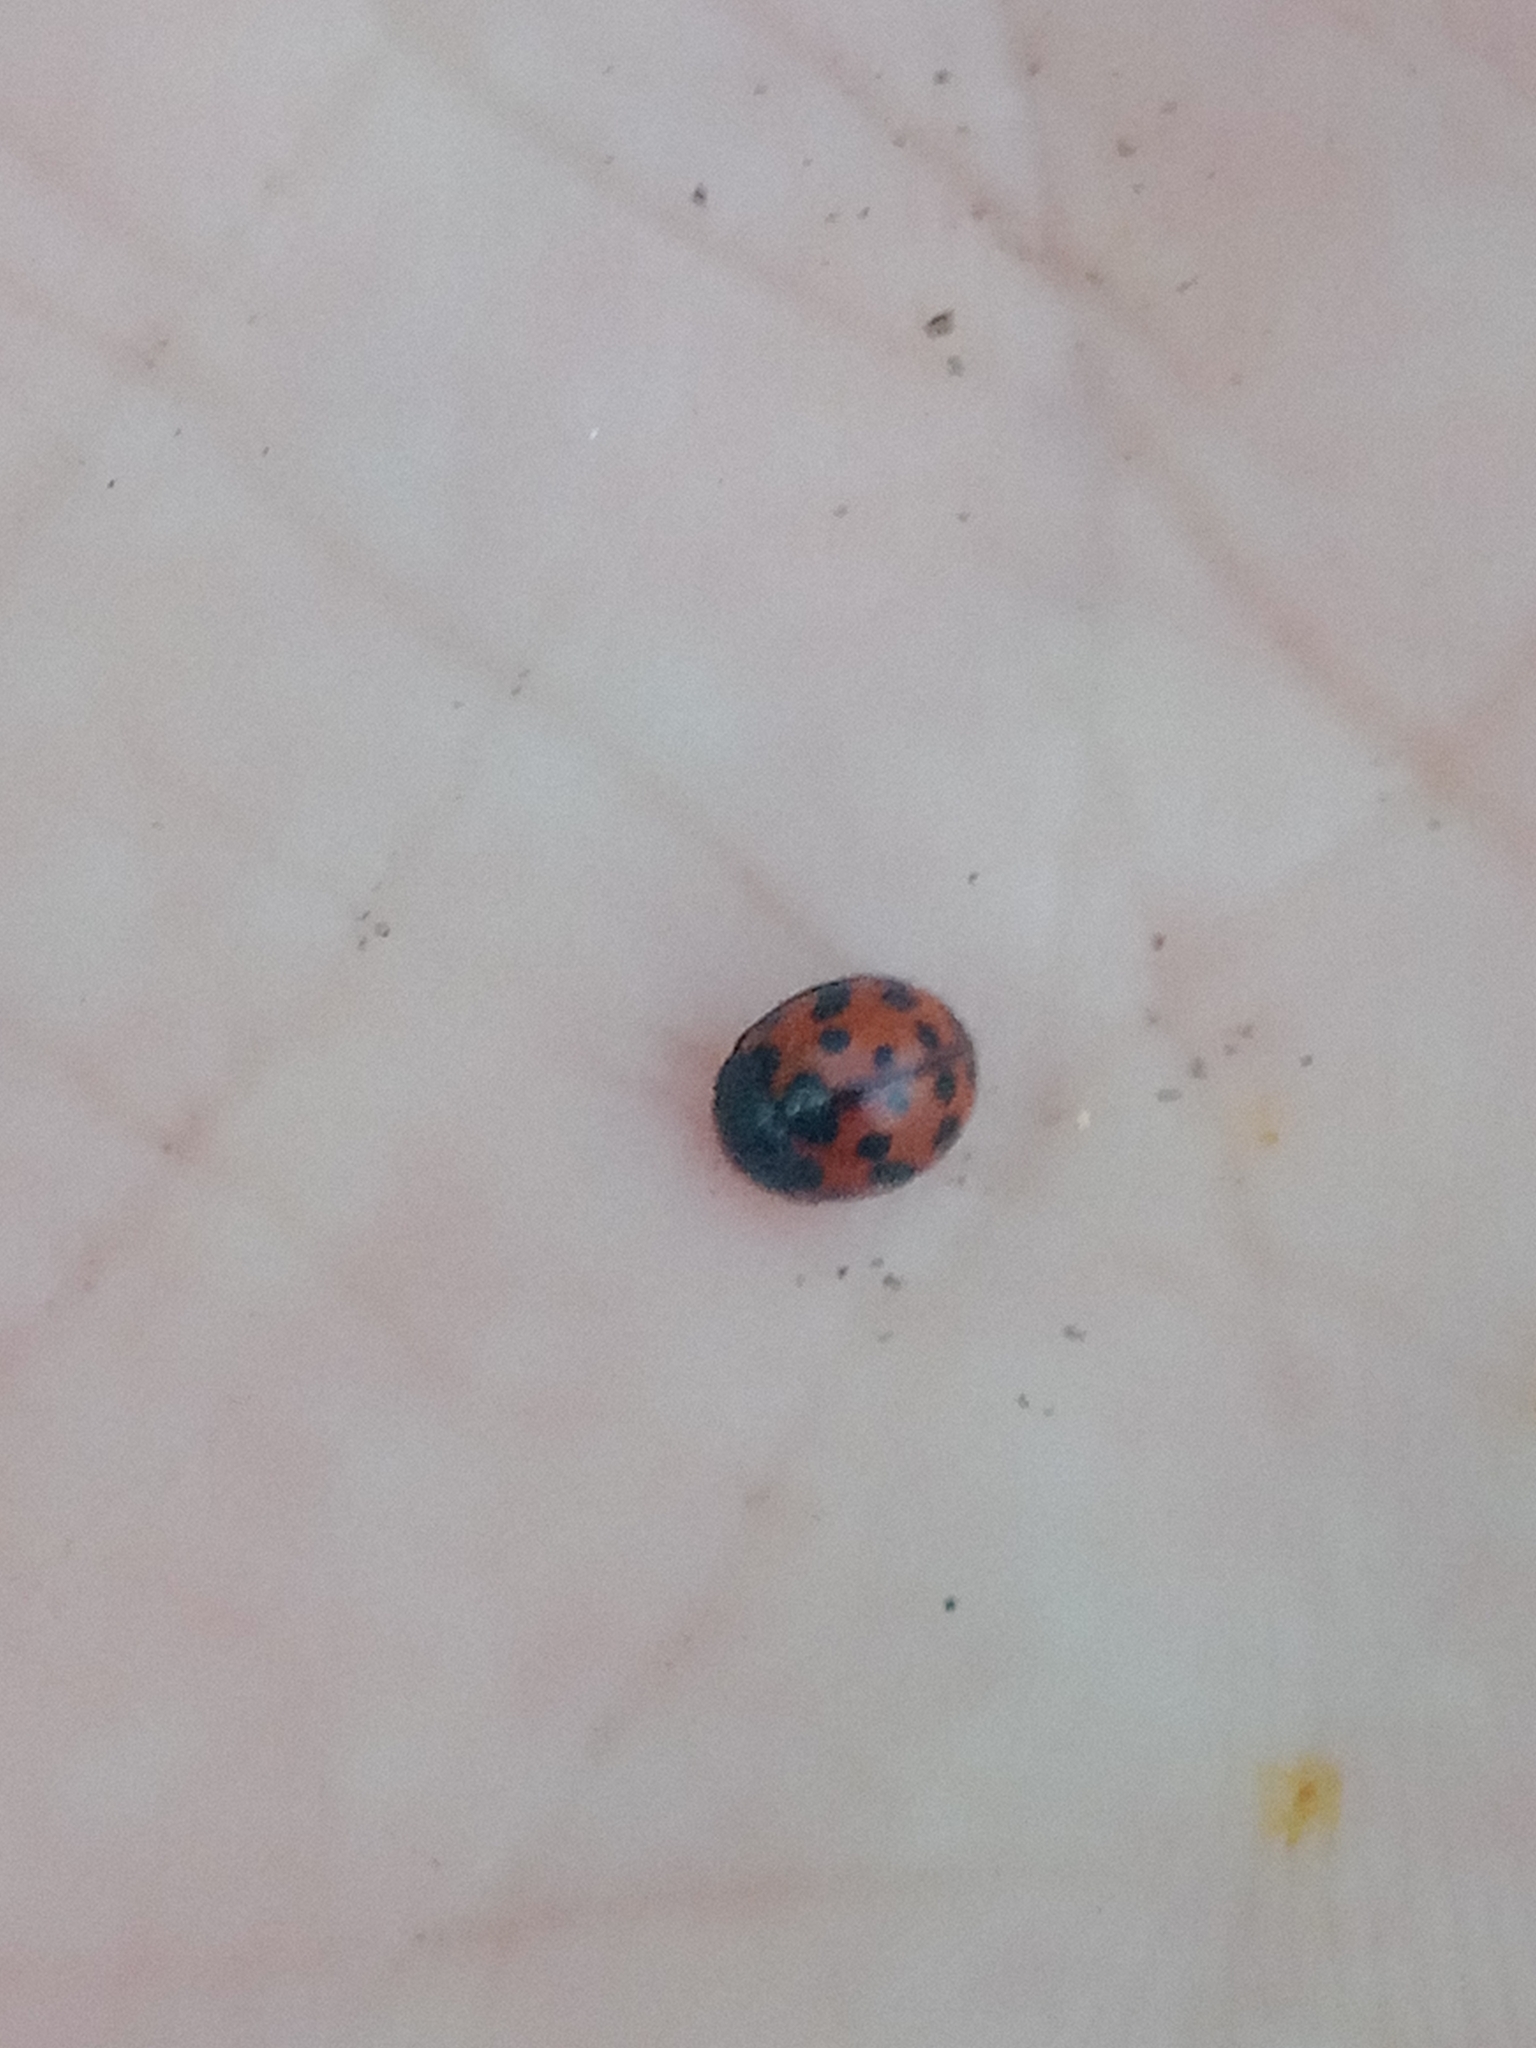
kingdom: Animalia
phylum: Arthropoda
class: Insecta
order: Coleoptera
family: Coccinellidae
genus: Subcoccinella
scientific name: Subcoccinella vigintiquatuorpunctata
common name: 24-spot ladybird
